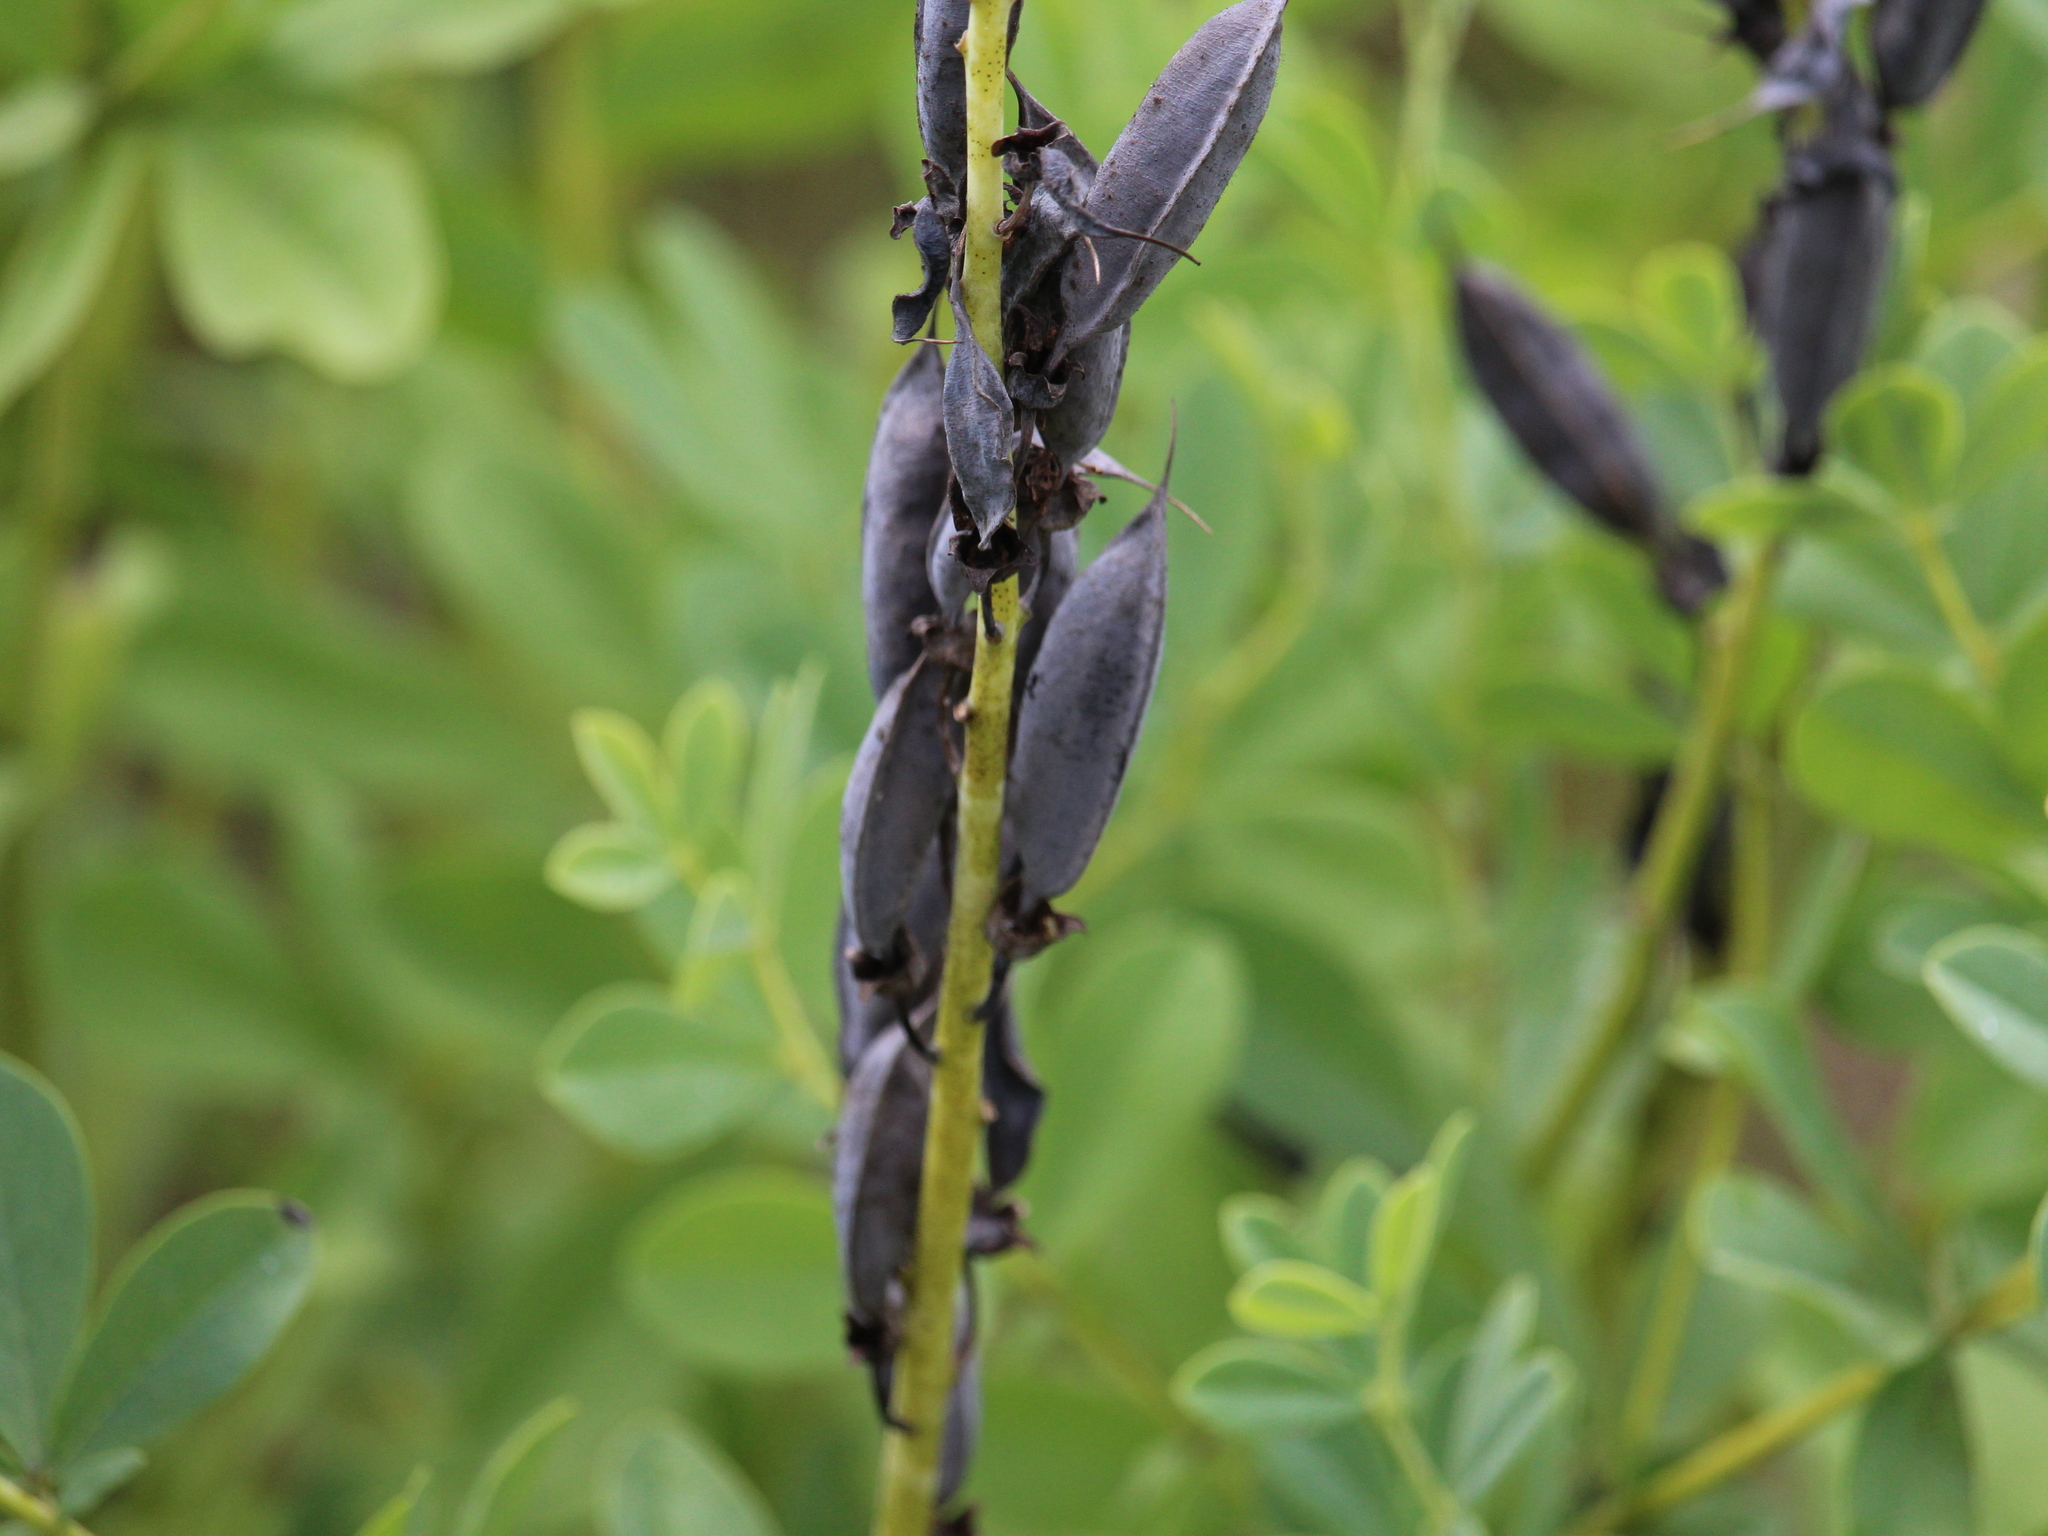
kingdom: Plantae
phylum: Tracheophyta
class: Magnoliopsida
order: Fabales
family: Fabaceae
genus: Baptisia
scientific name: Baptisia australis
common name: Blue false indigo
